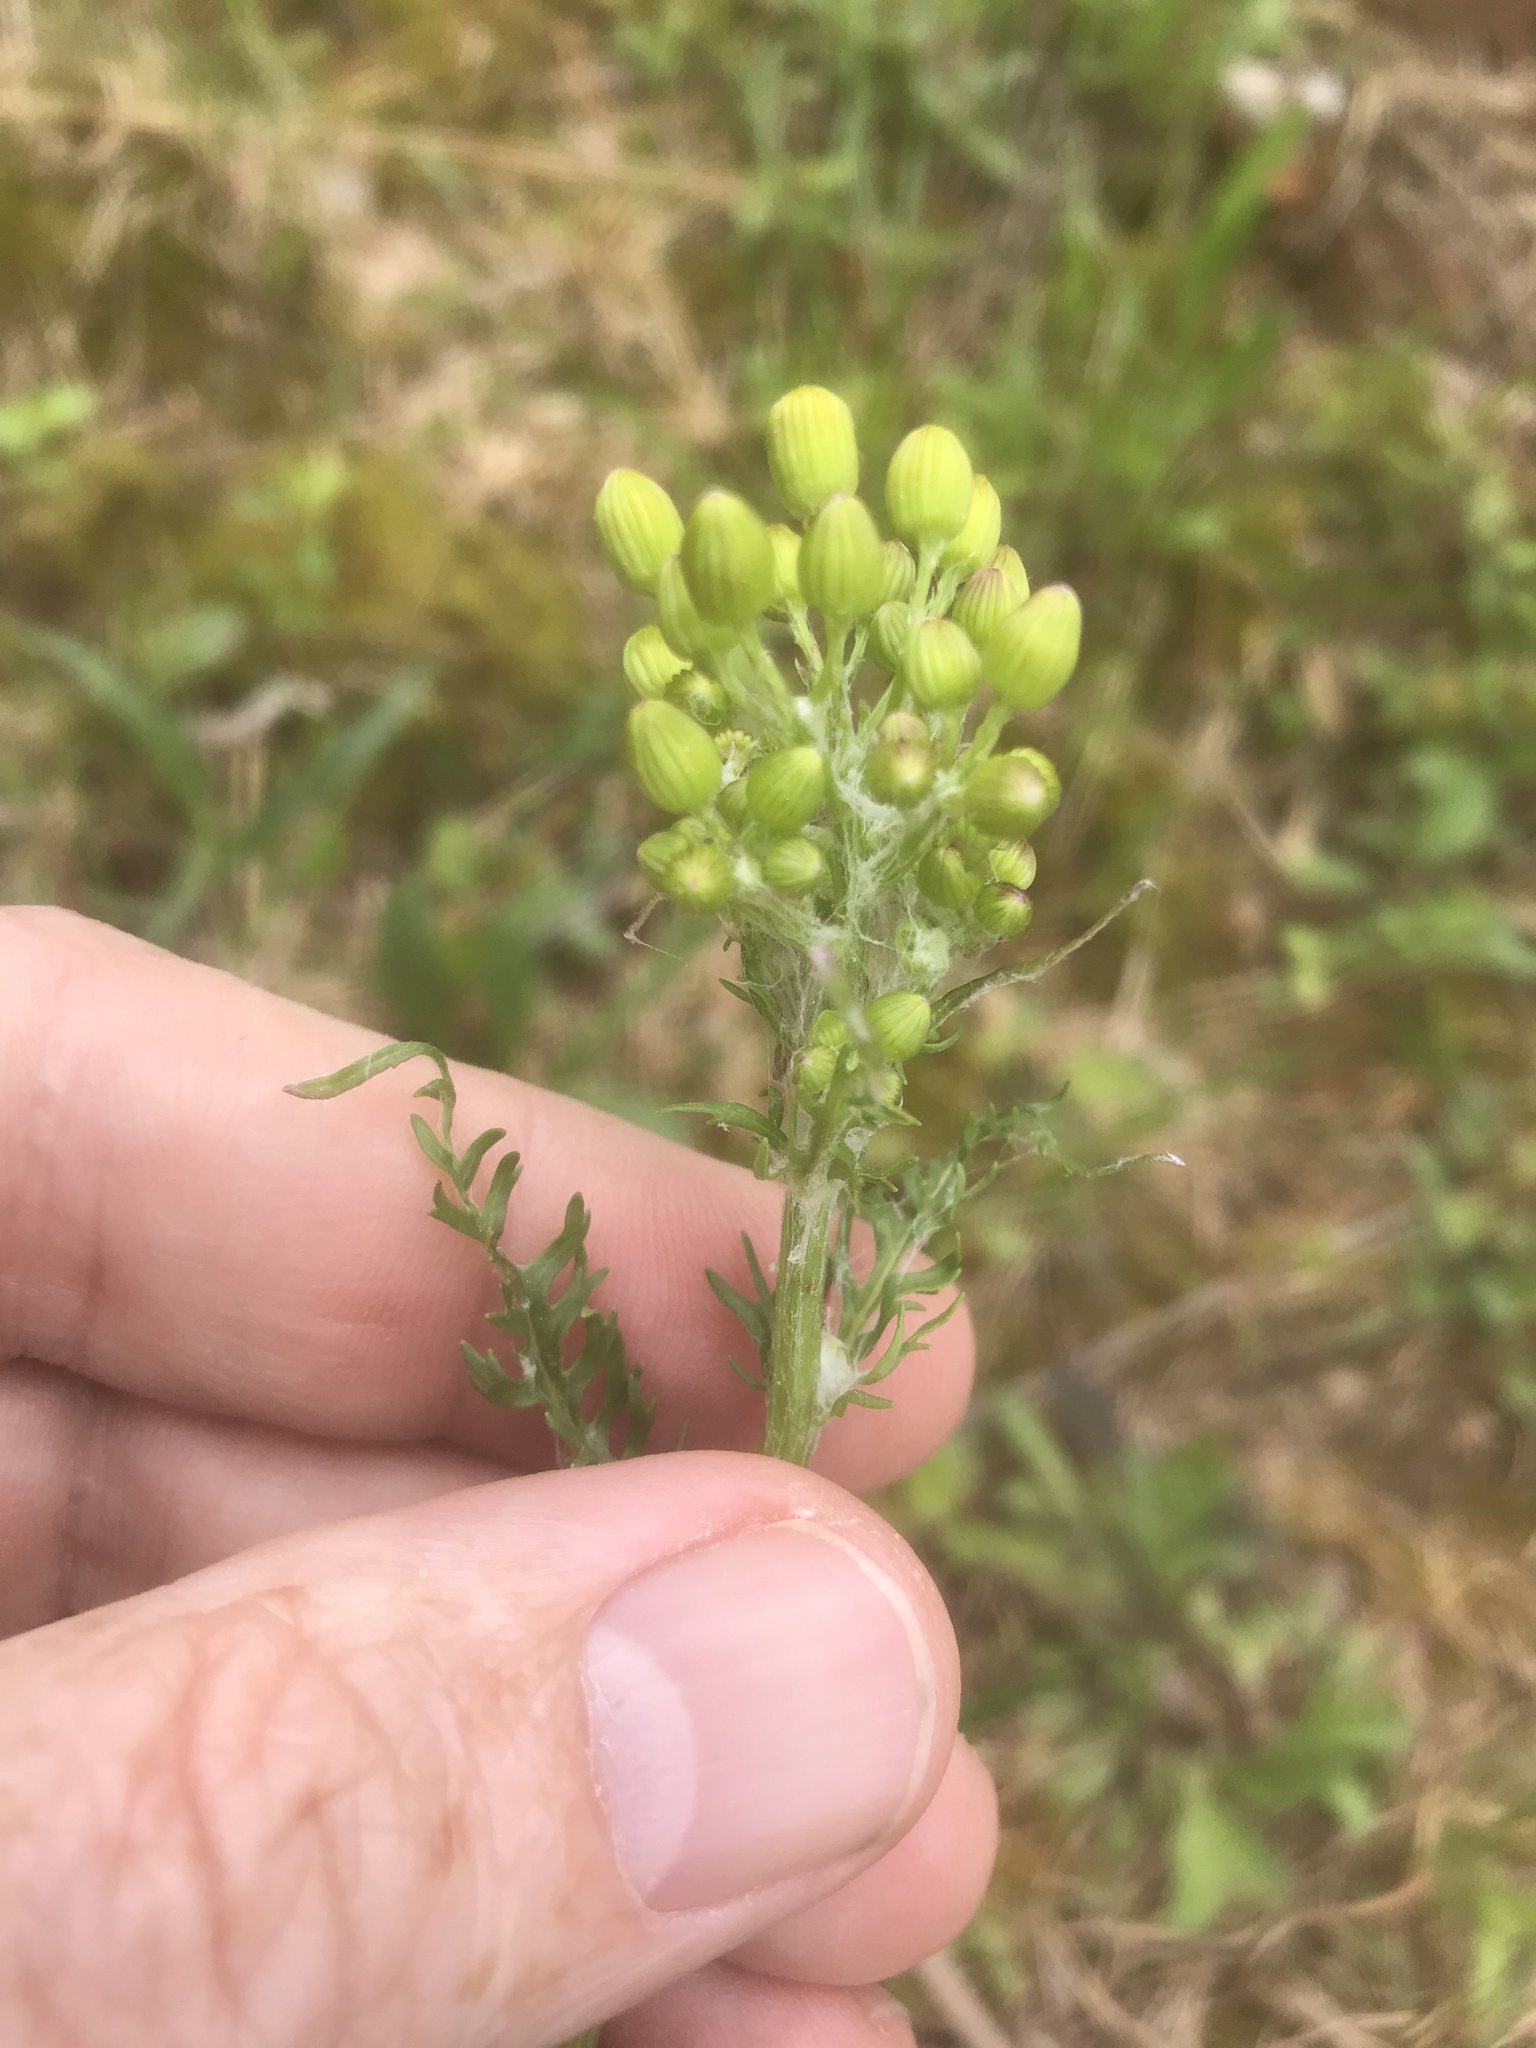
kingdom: Plantae
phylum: Tracheophyta
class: Magnoliopsida
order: Asterales
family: Asteraceae
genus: Packera
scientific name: Packera anonyma
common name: Small ragwort
